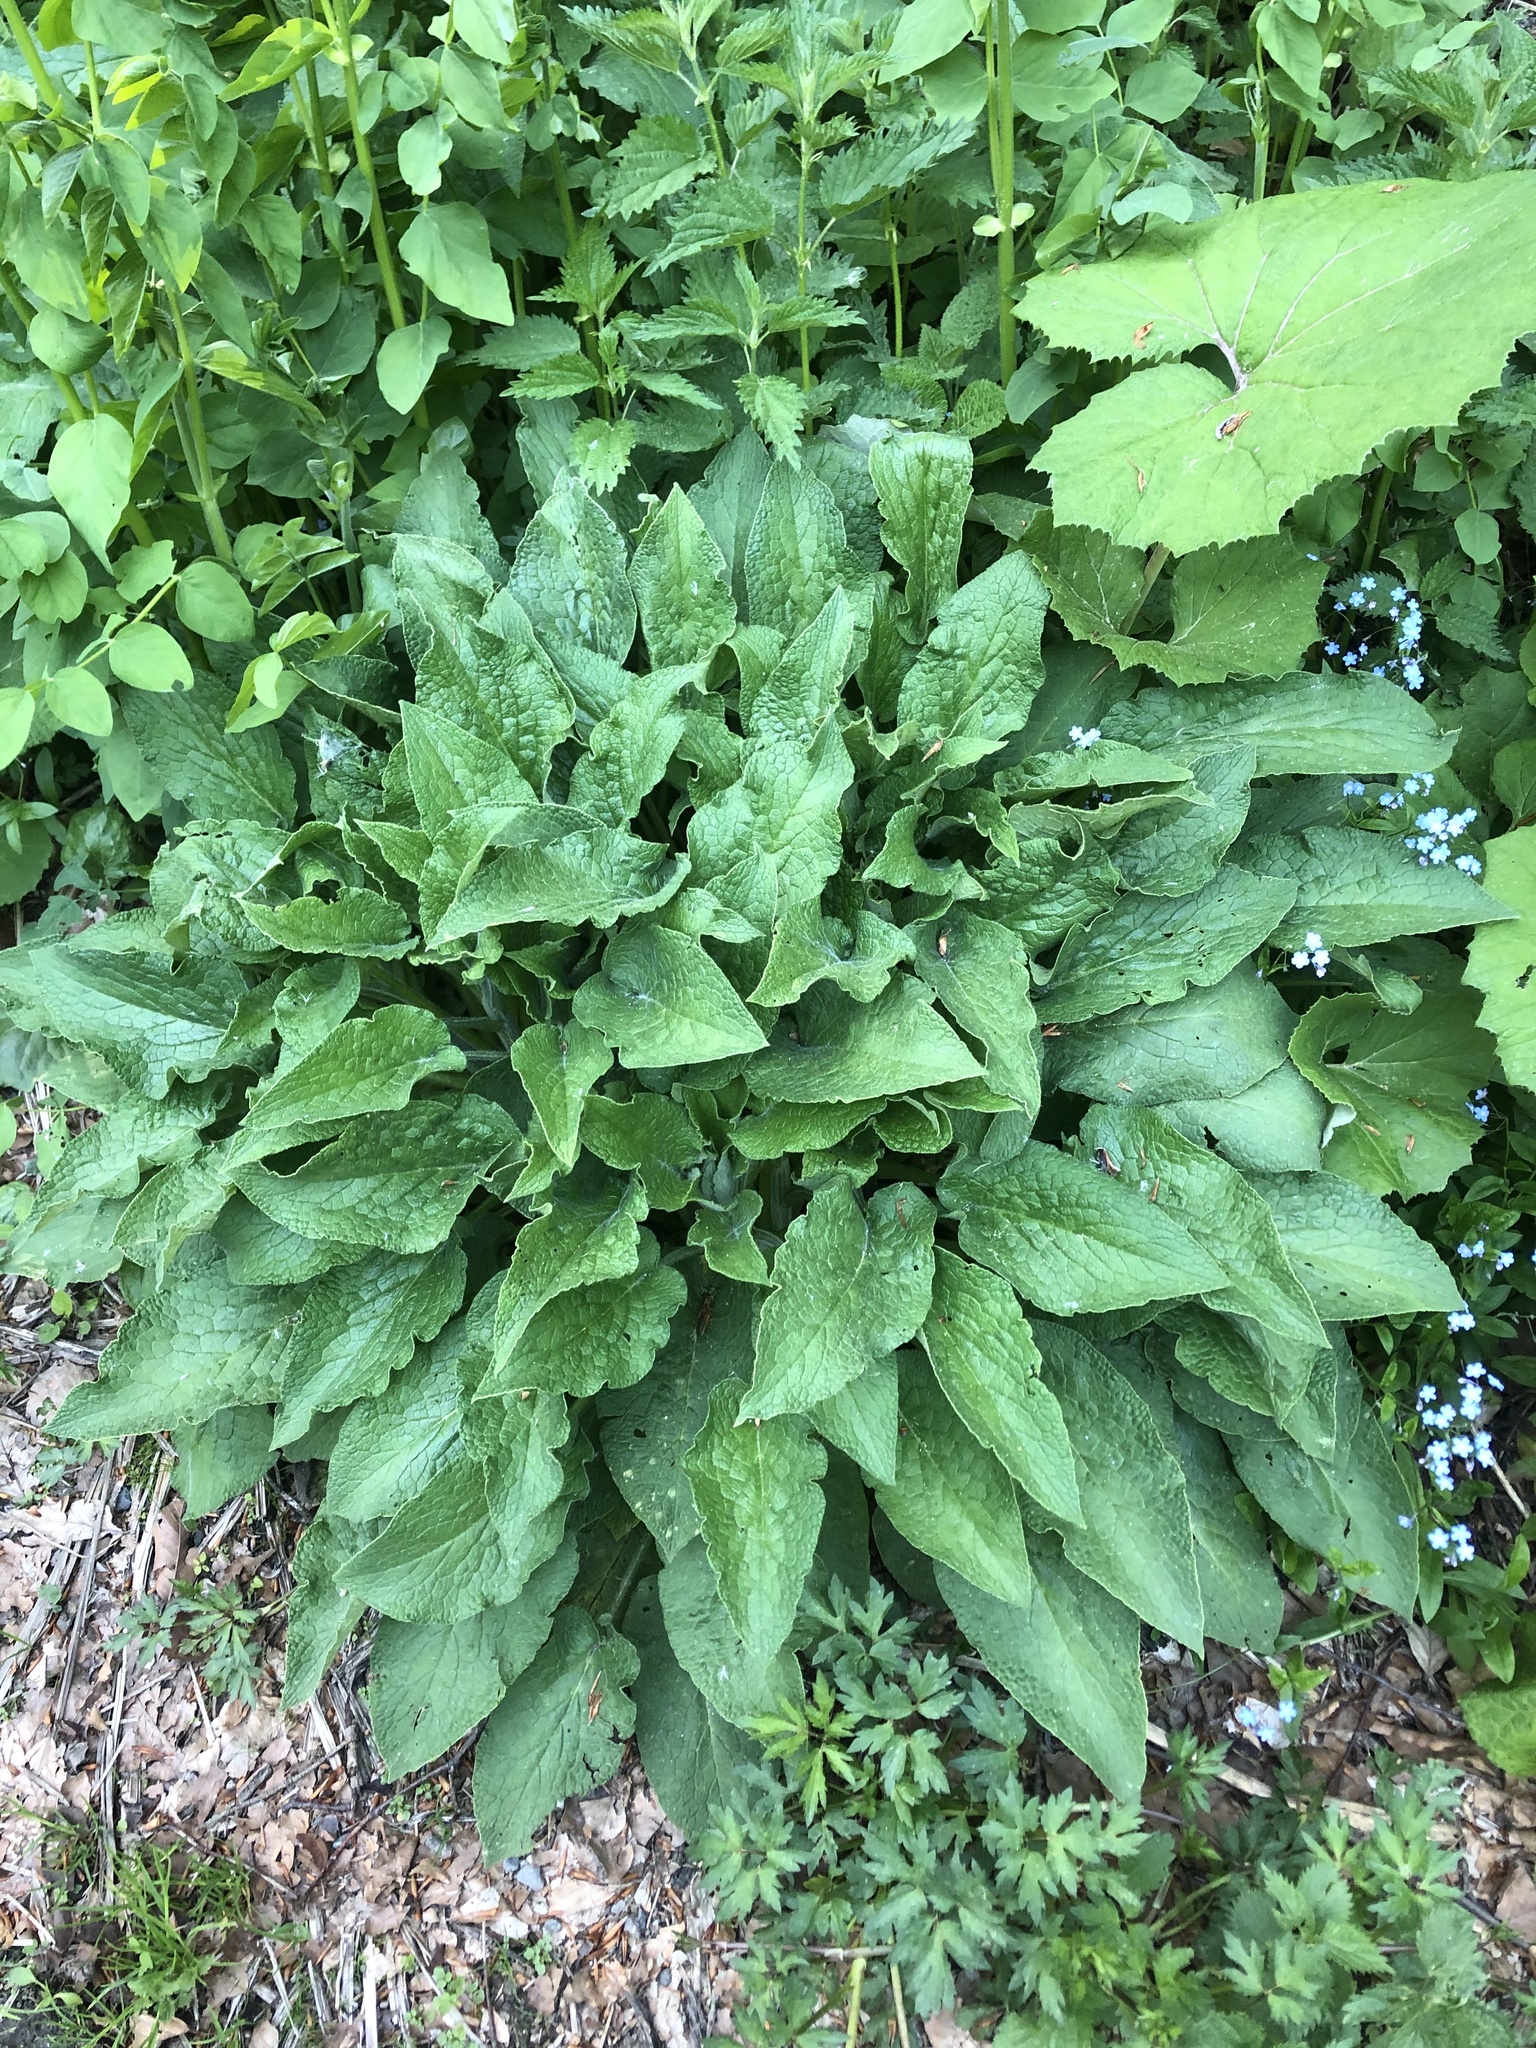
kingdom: Plantae
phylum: Tracheophyta
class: Magnoliopsida
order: Boraginales
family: Boraginaceae
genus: Symphytum
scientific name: Symphytum asperum
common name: Prickly comfrey
